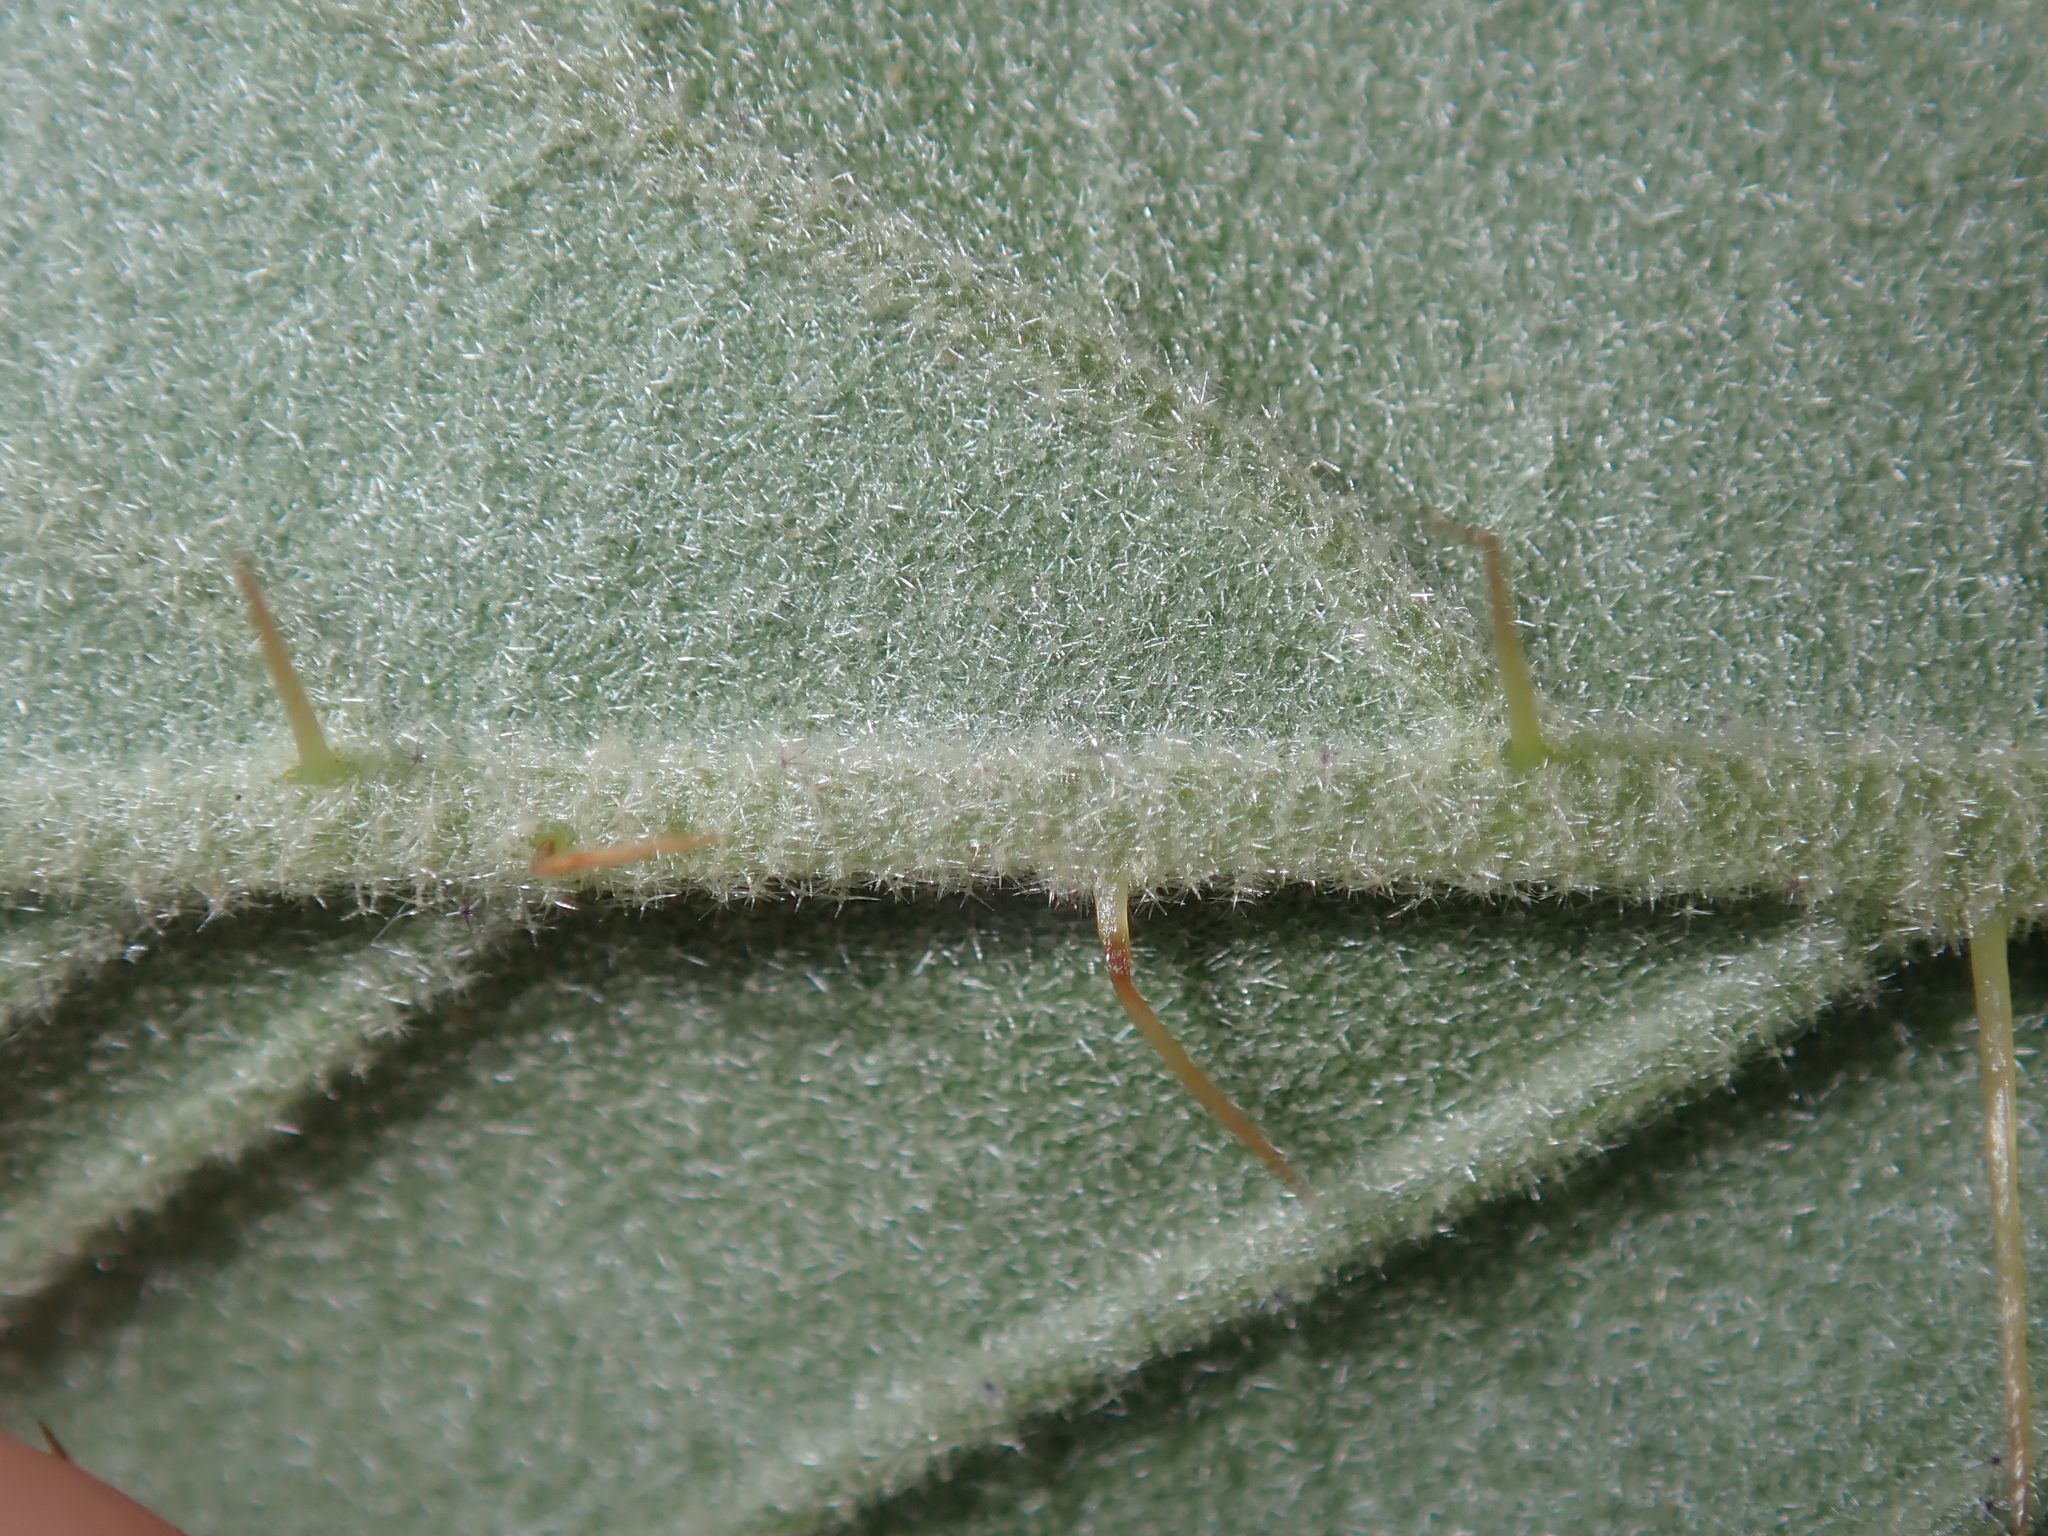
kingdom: Plantae
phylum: Tracheophyta
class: Magnoliopsida
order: Solanales
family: Solanaceae
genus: Solanum
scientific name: Solanum cleistogamum
